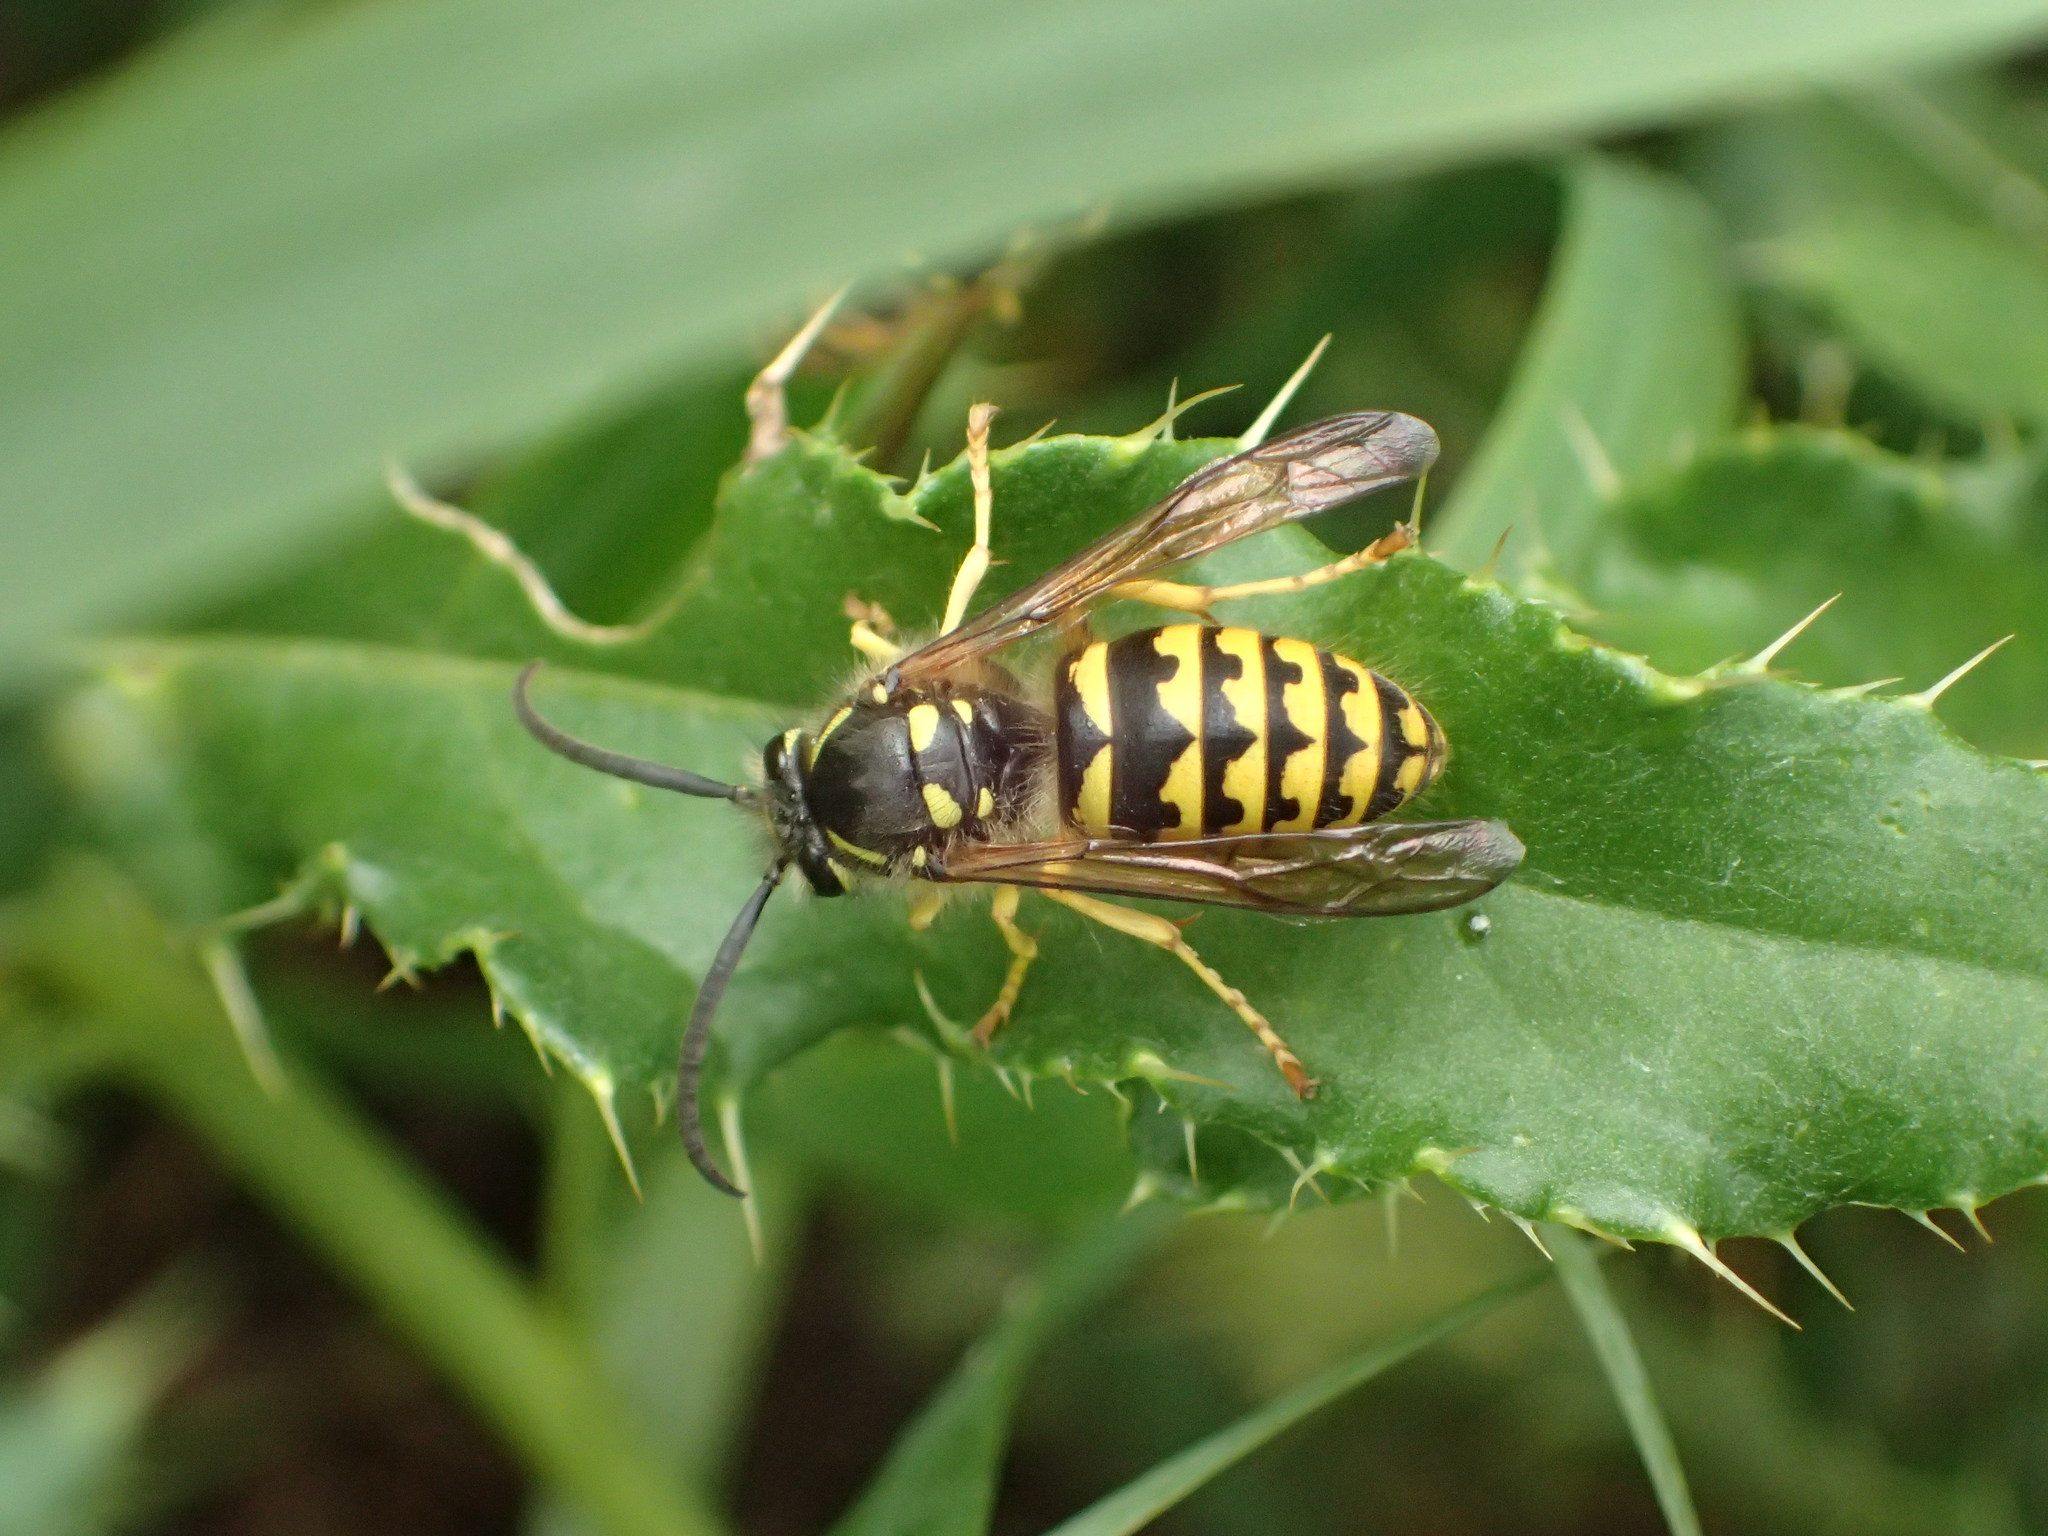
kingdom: Animalia
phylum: Arthropoda
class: Insecta
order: Hymenoptera
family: Vespidae
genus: Dolichovespula
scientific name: Dolichovespula arenaria
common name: Aerial yellowjacket
